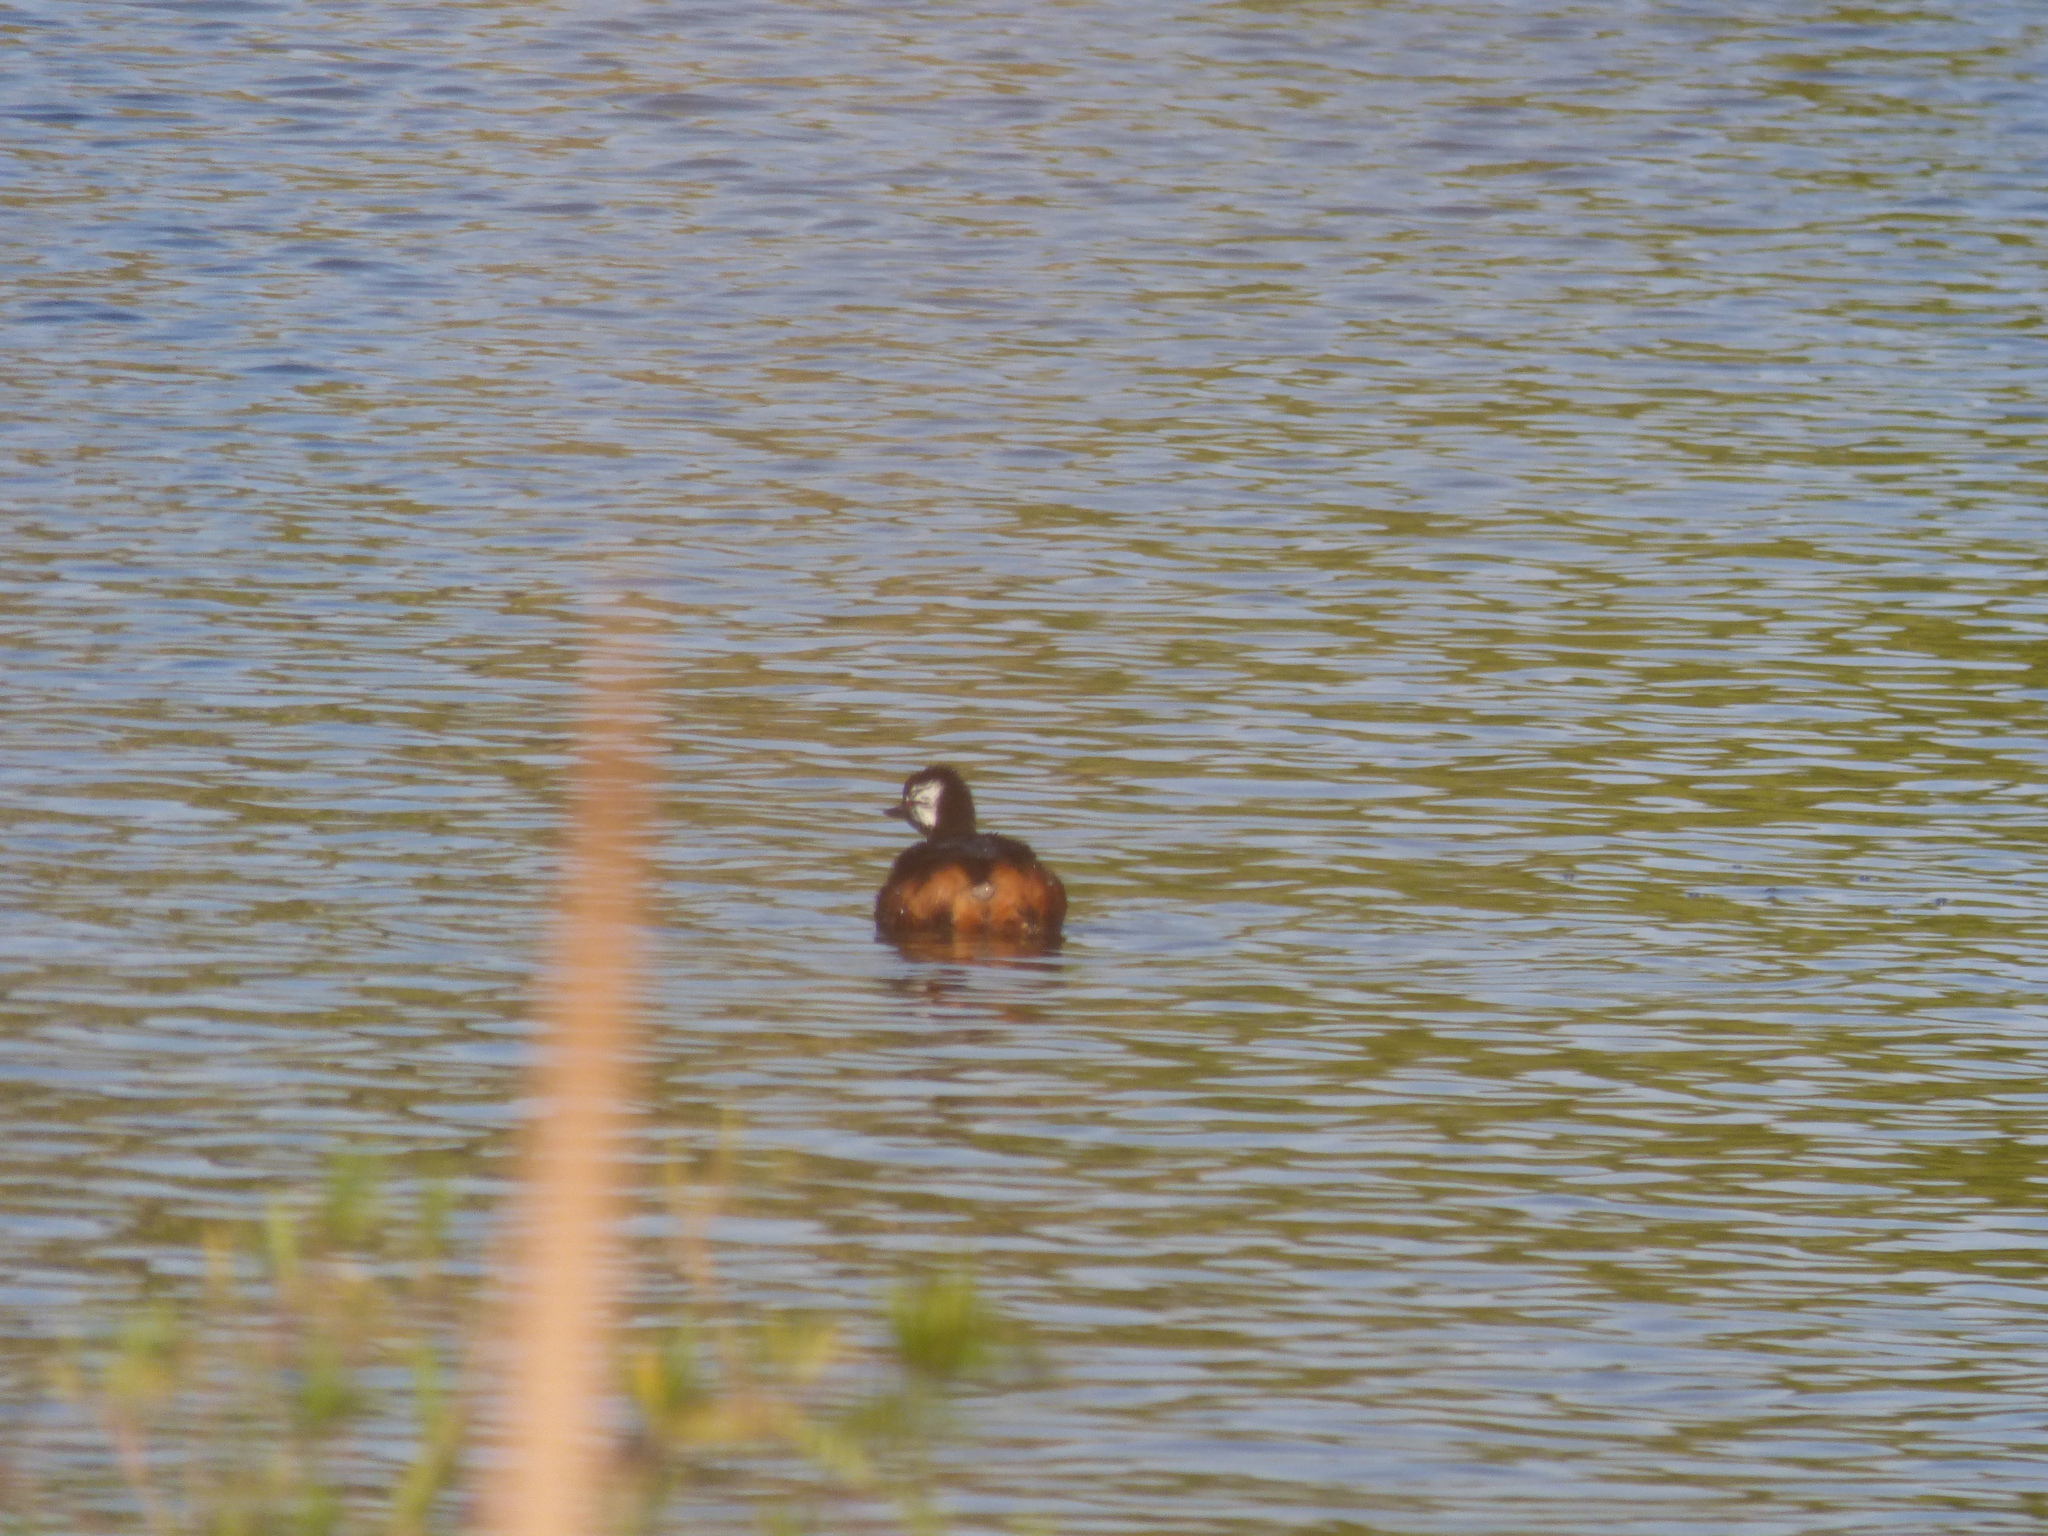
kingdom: Animalia
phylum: Chordata
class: Aves
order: Podicipediformes
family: Podicipedidae
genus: Rollandia
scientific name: Rollandia rolland
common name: White-tufted grebe
